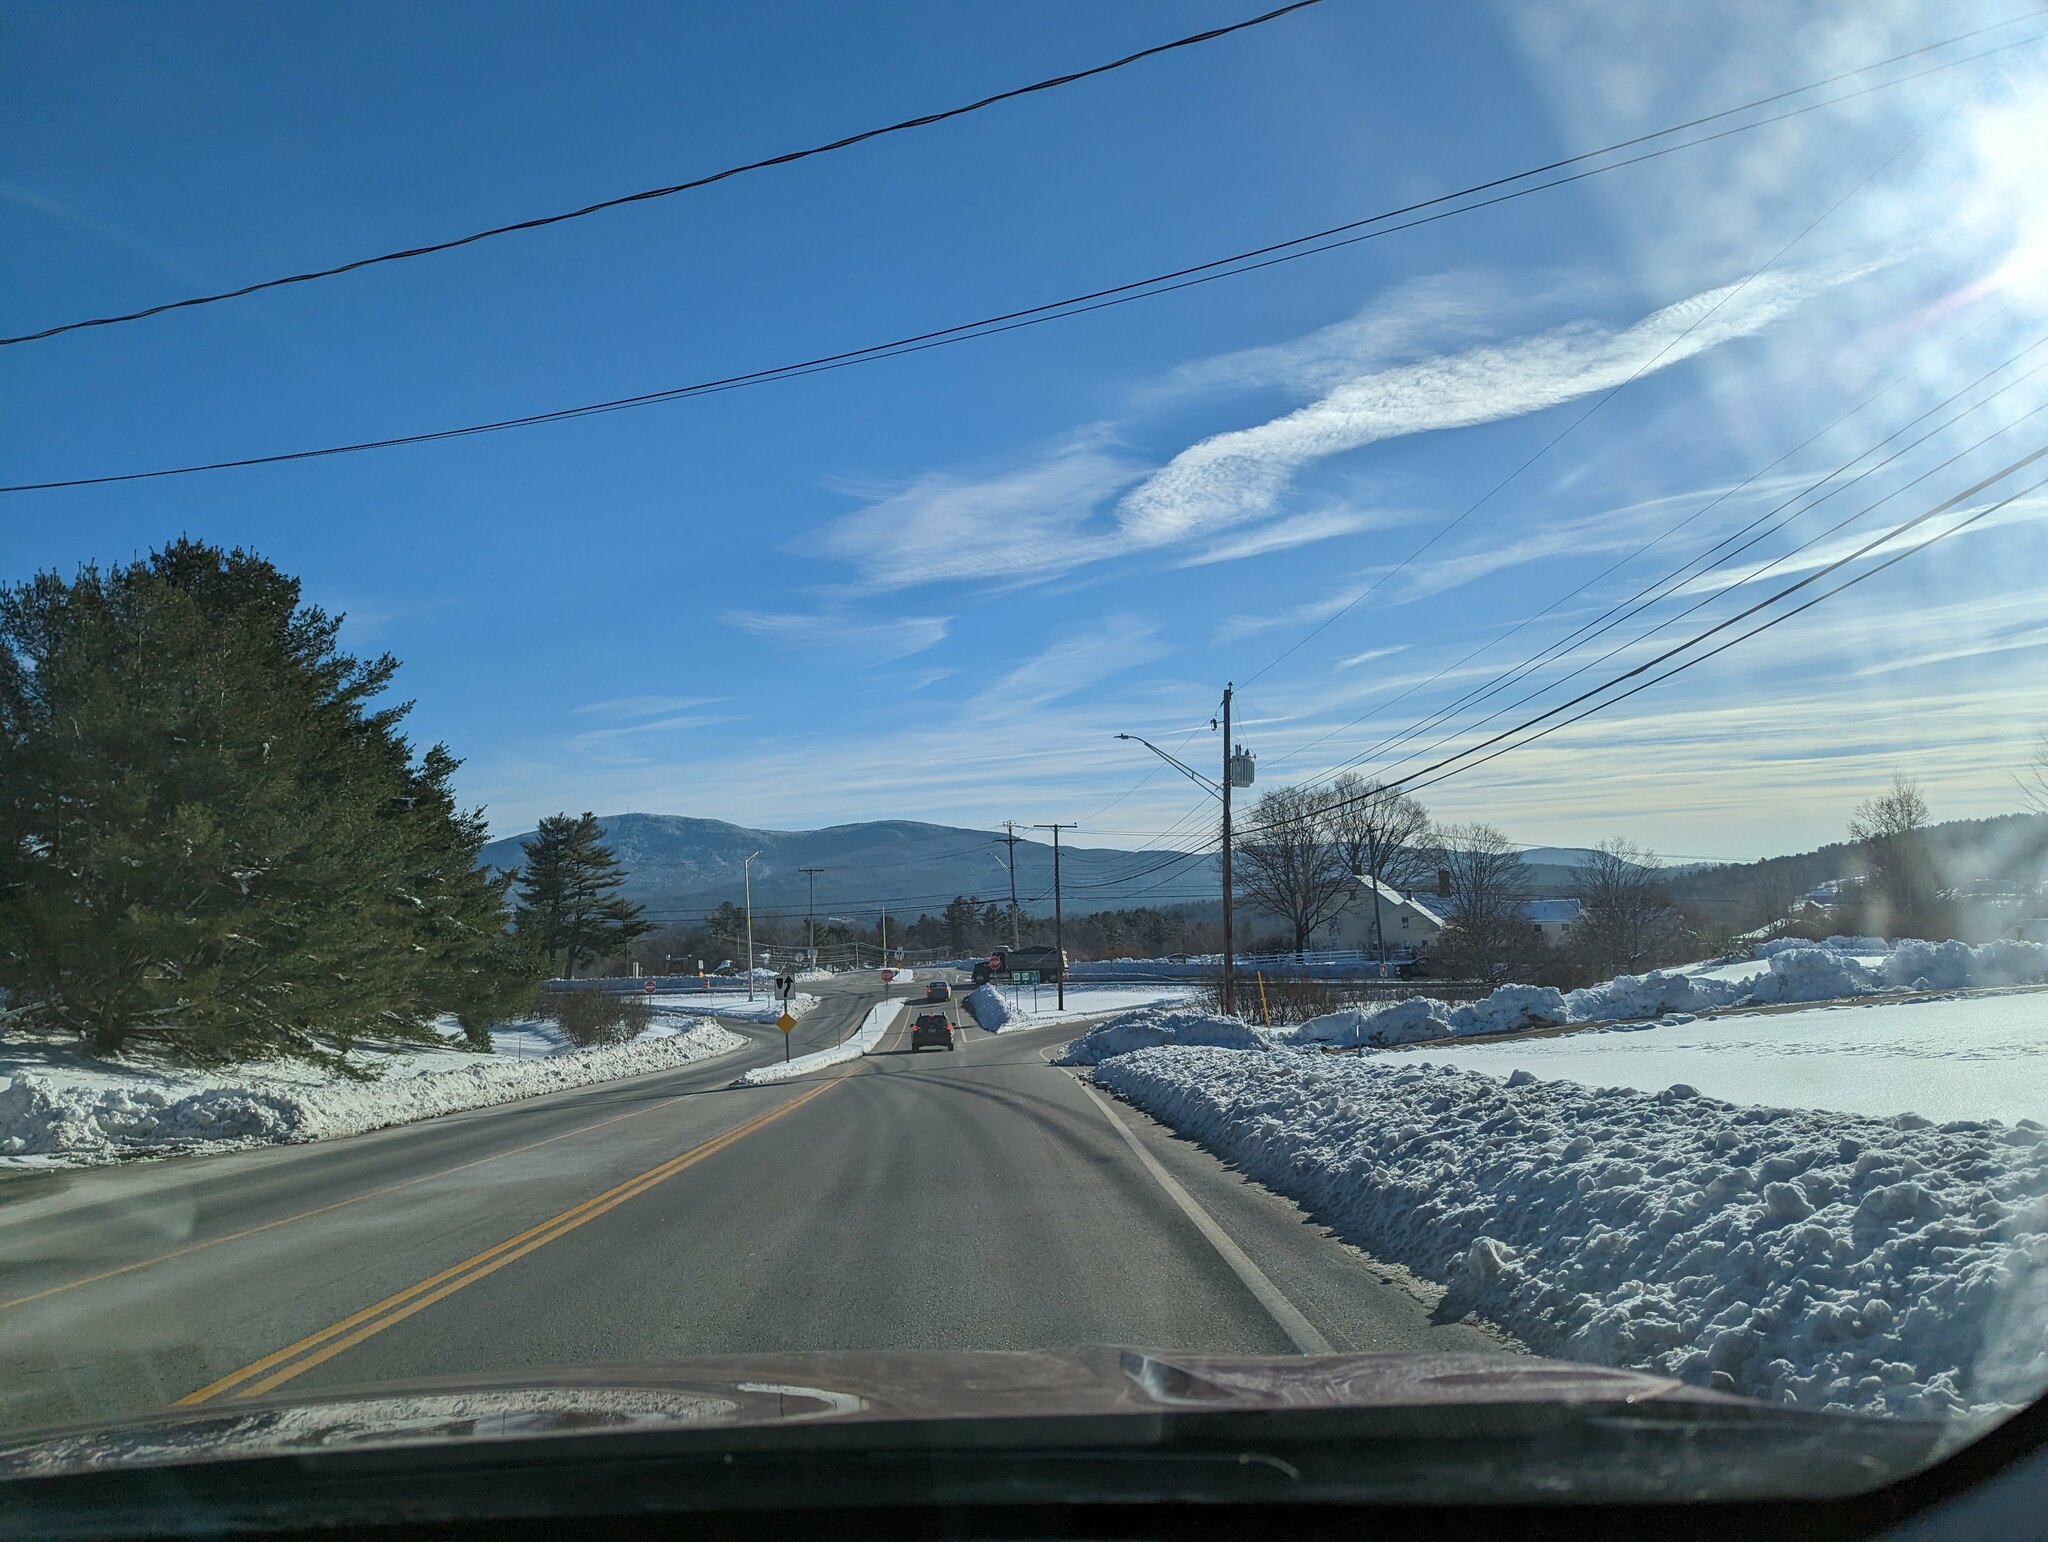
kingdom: Plantae
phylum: Tracheophyta
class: Pinopsida
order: Pinales
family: Pinaceae
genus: Pinus
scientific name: Pinus strobus
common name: Weymouth pine
